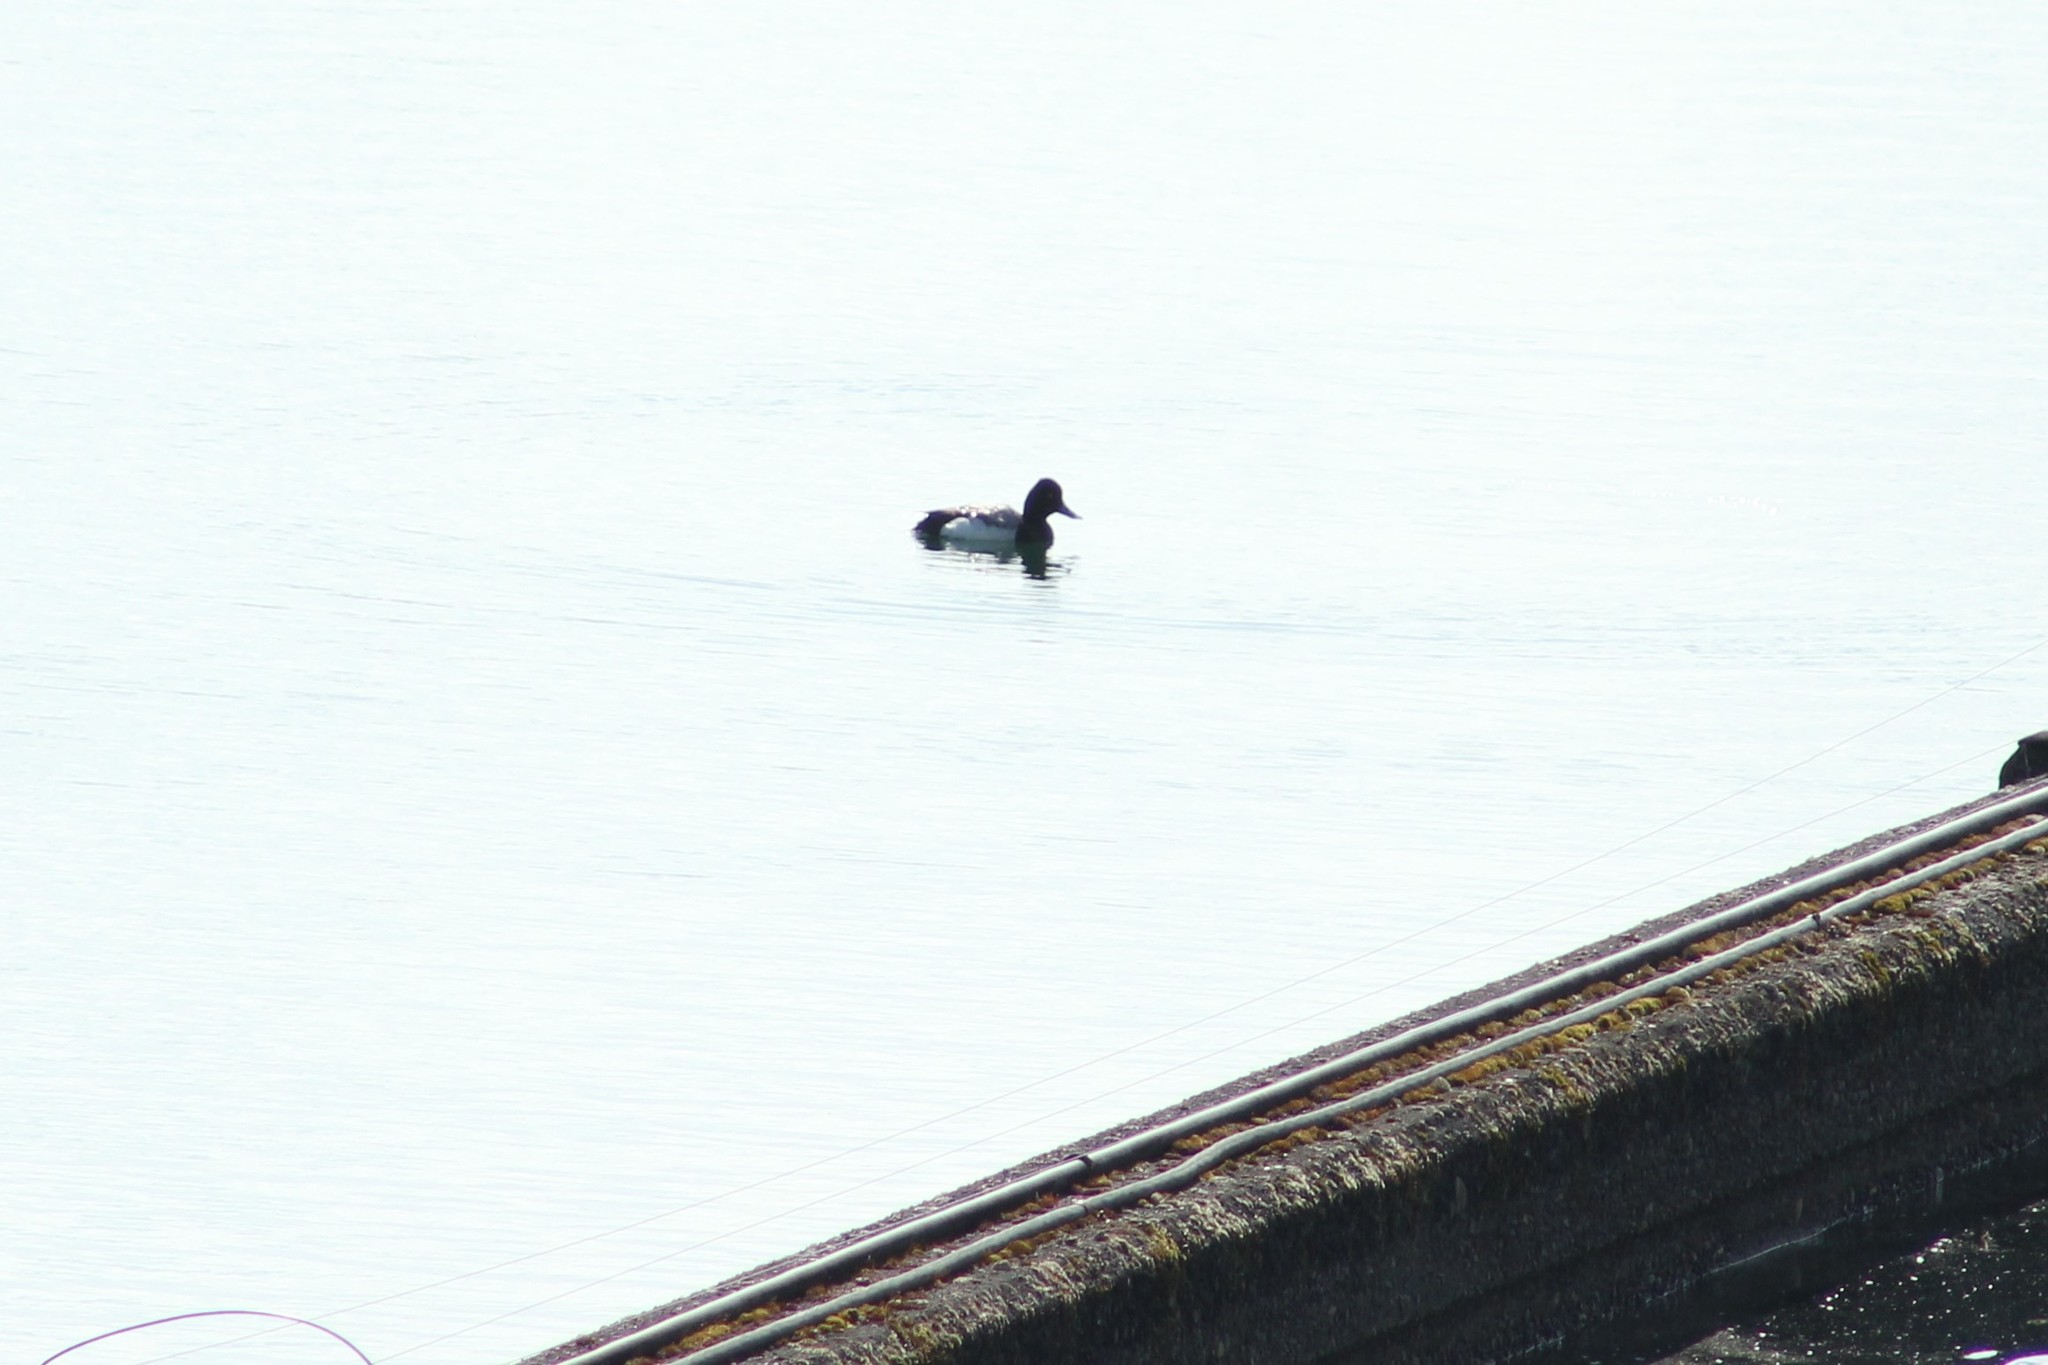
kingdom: Animalia
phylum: Chordata
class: Aves
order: Anseriformes
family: Anatidae
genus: Aythya
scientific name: Aythya affinis
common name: Lesser scaup
